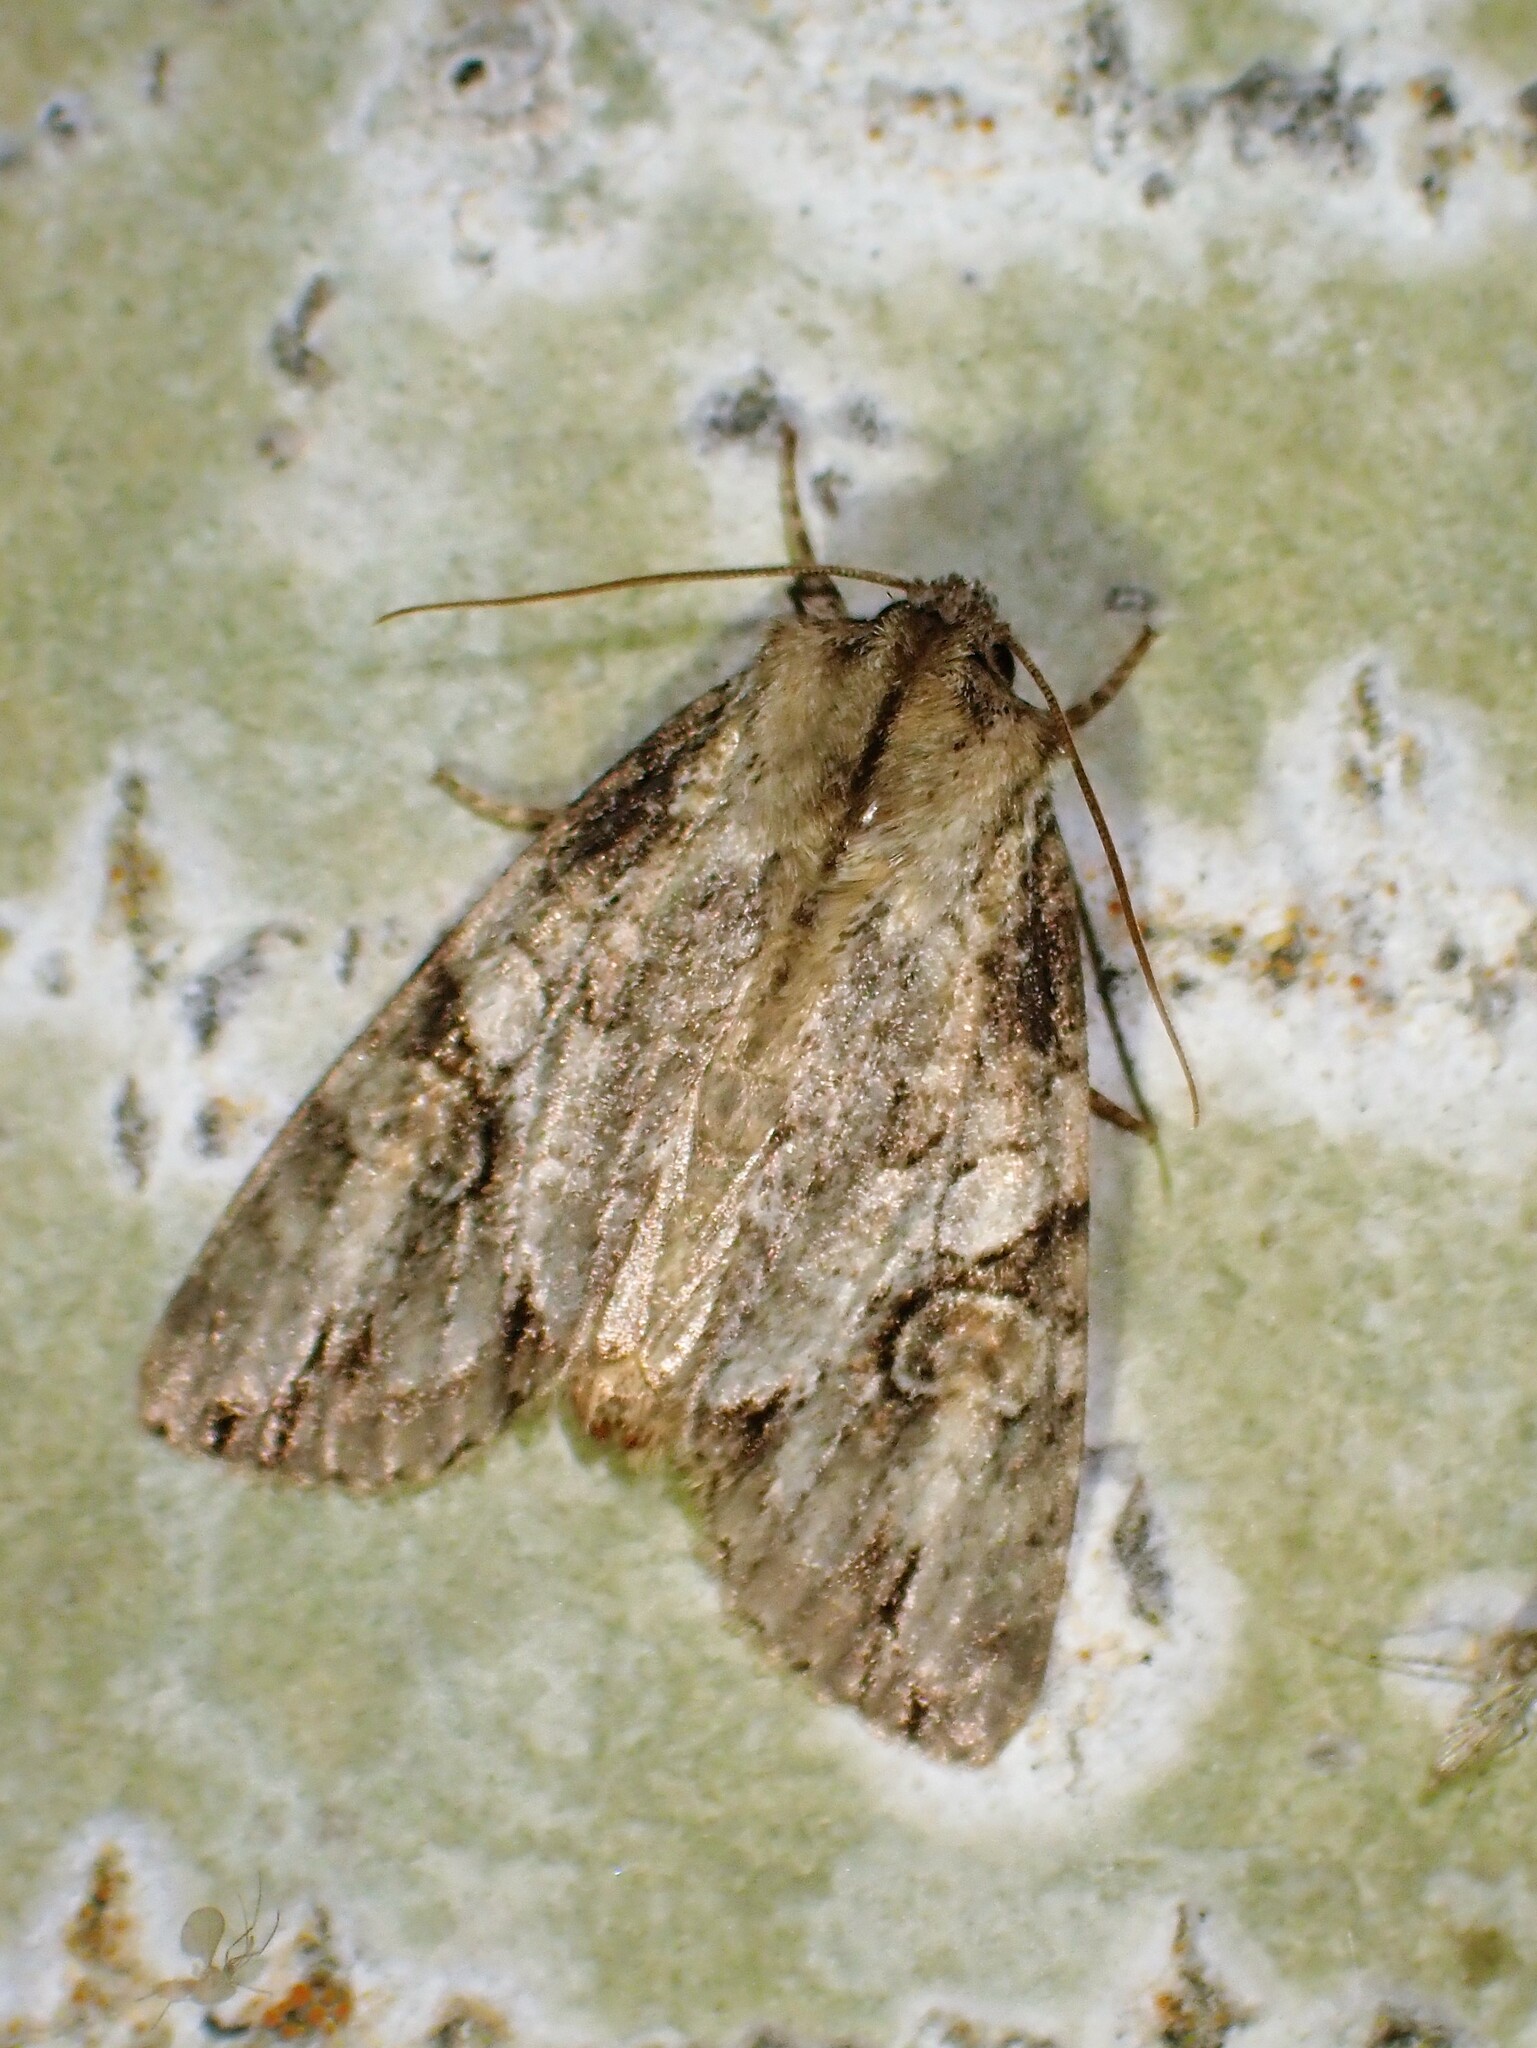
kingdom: Animalia
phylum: Arthropoda
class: Insecta
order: Lepidoptera
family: Noctuidae
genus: Achatia
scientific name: Achatia latex
